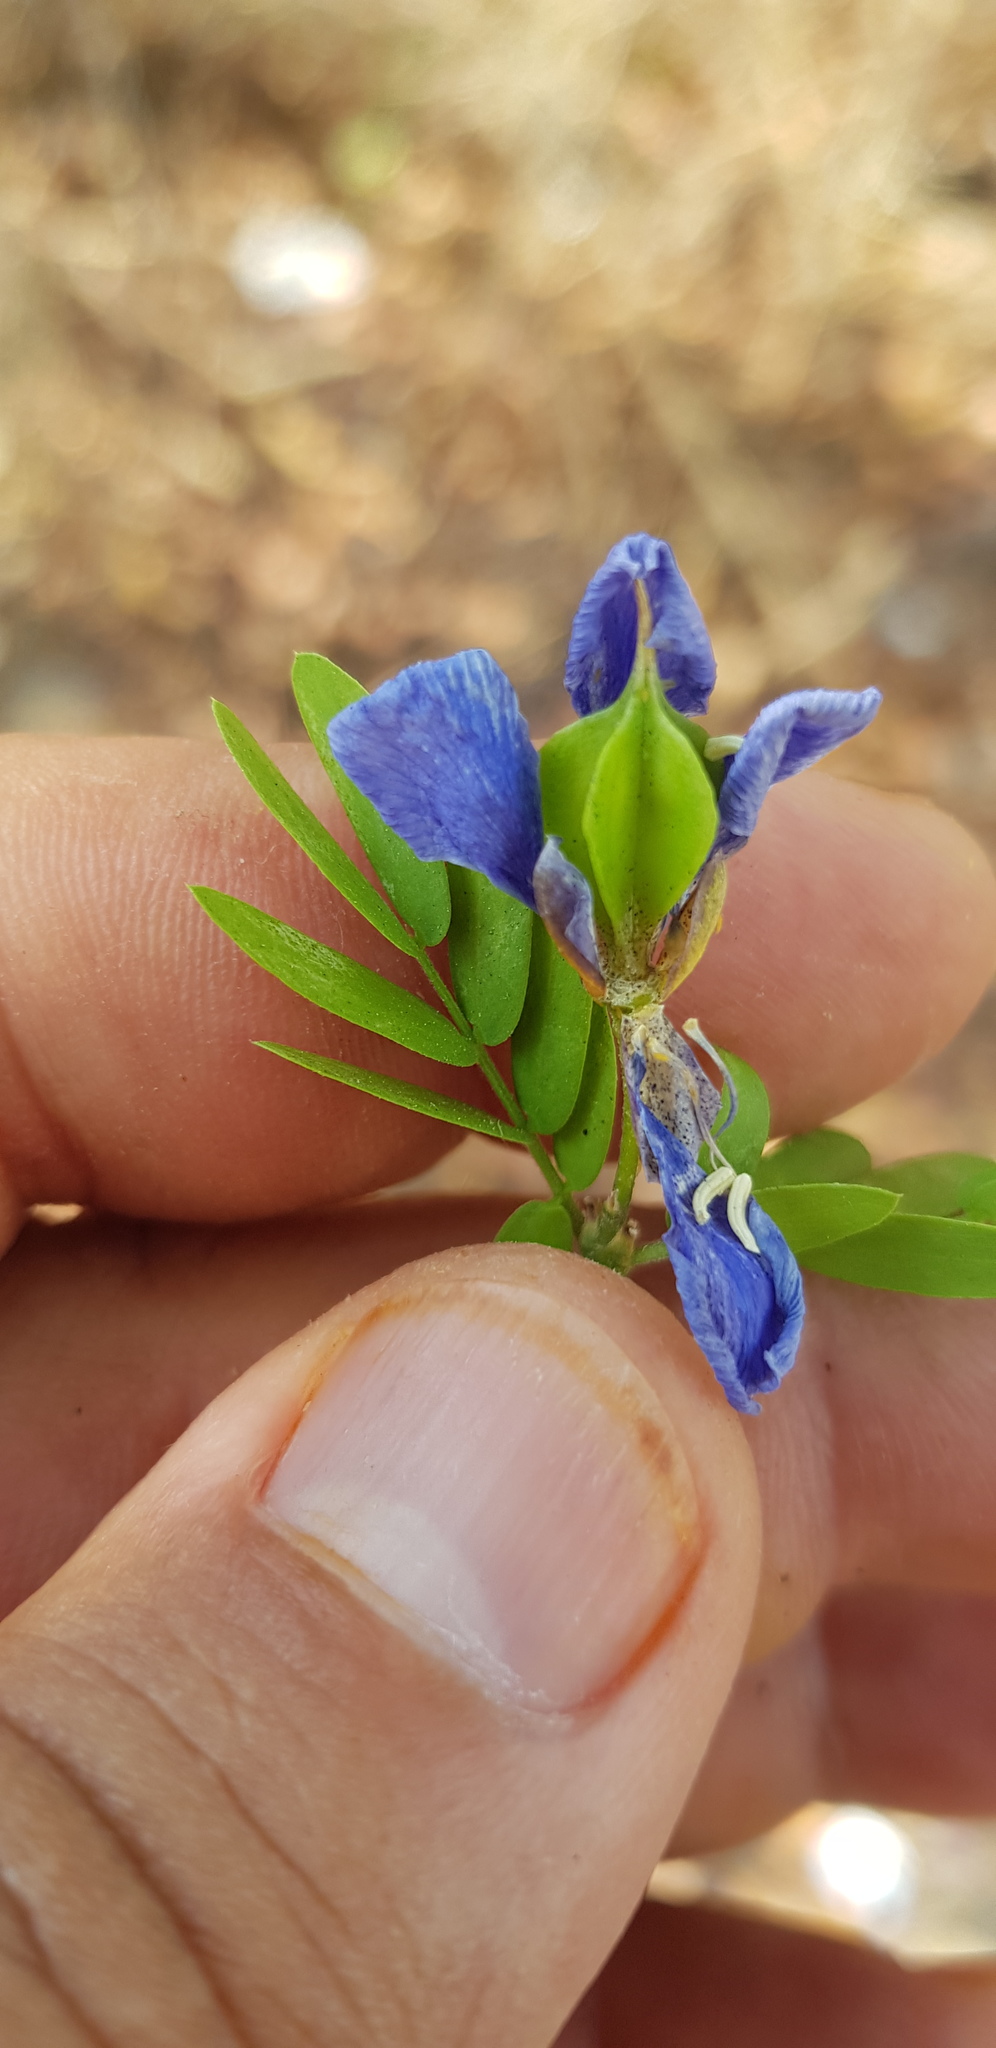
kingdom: Plantae
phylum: Tracheophyta
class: Magnoliopsida
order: Zygophyllales
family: Zygophyllaceae
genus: Guaiacum
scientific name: Guaiacum coulteri
